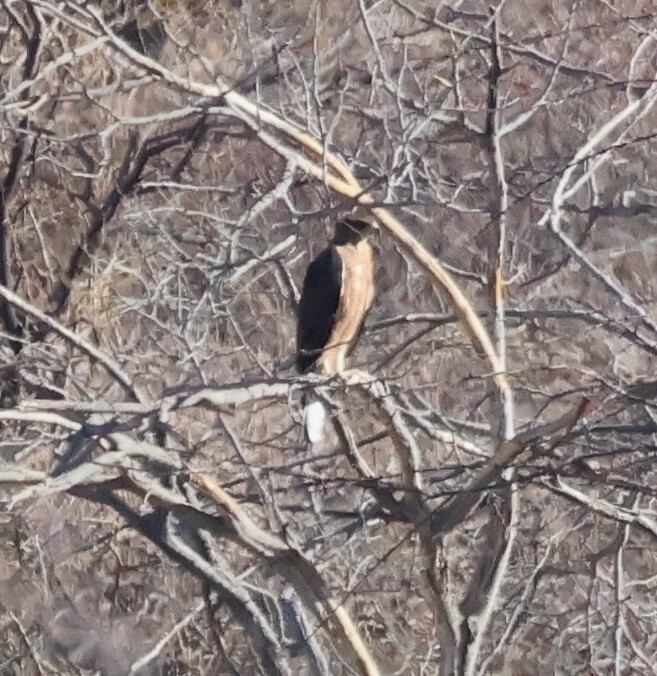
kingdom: Animalia
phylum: Chordata
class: Aves
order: Accipitriformes
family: Accipitridae
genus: Aquila
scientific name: Aquila spilogaster
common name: African hawk-eagle
